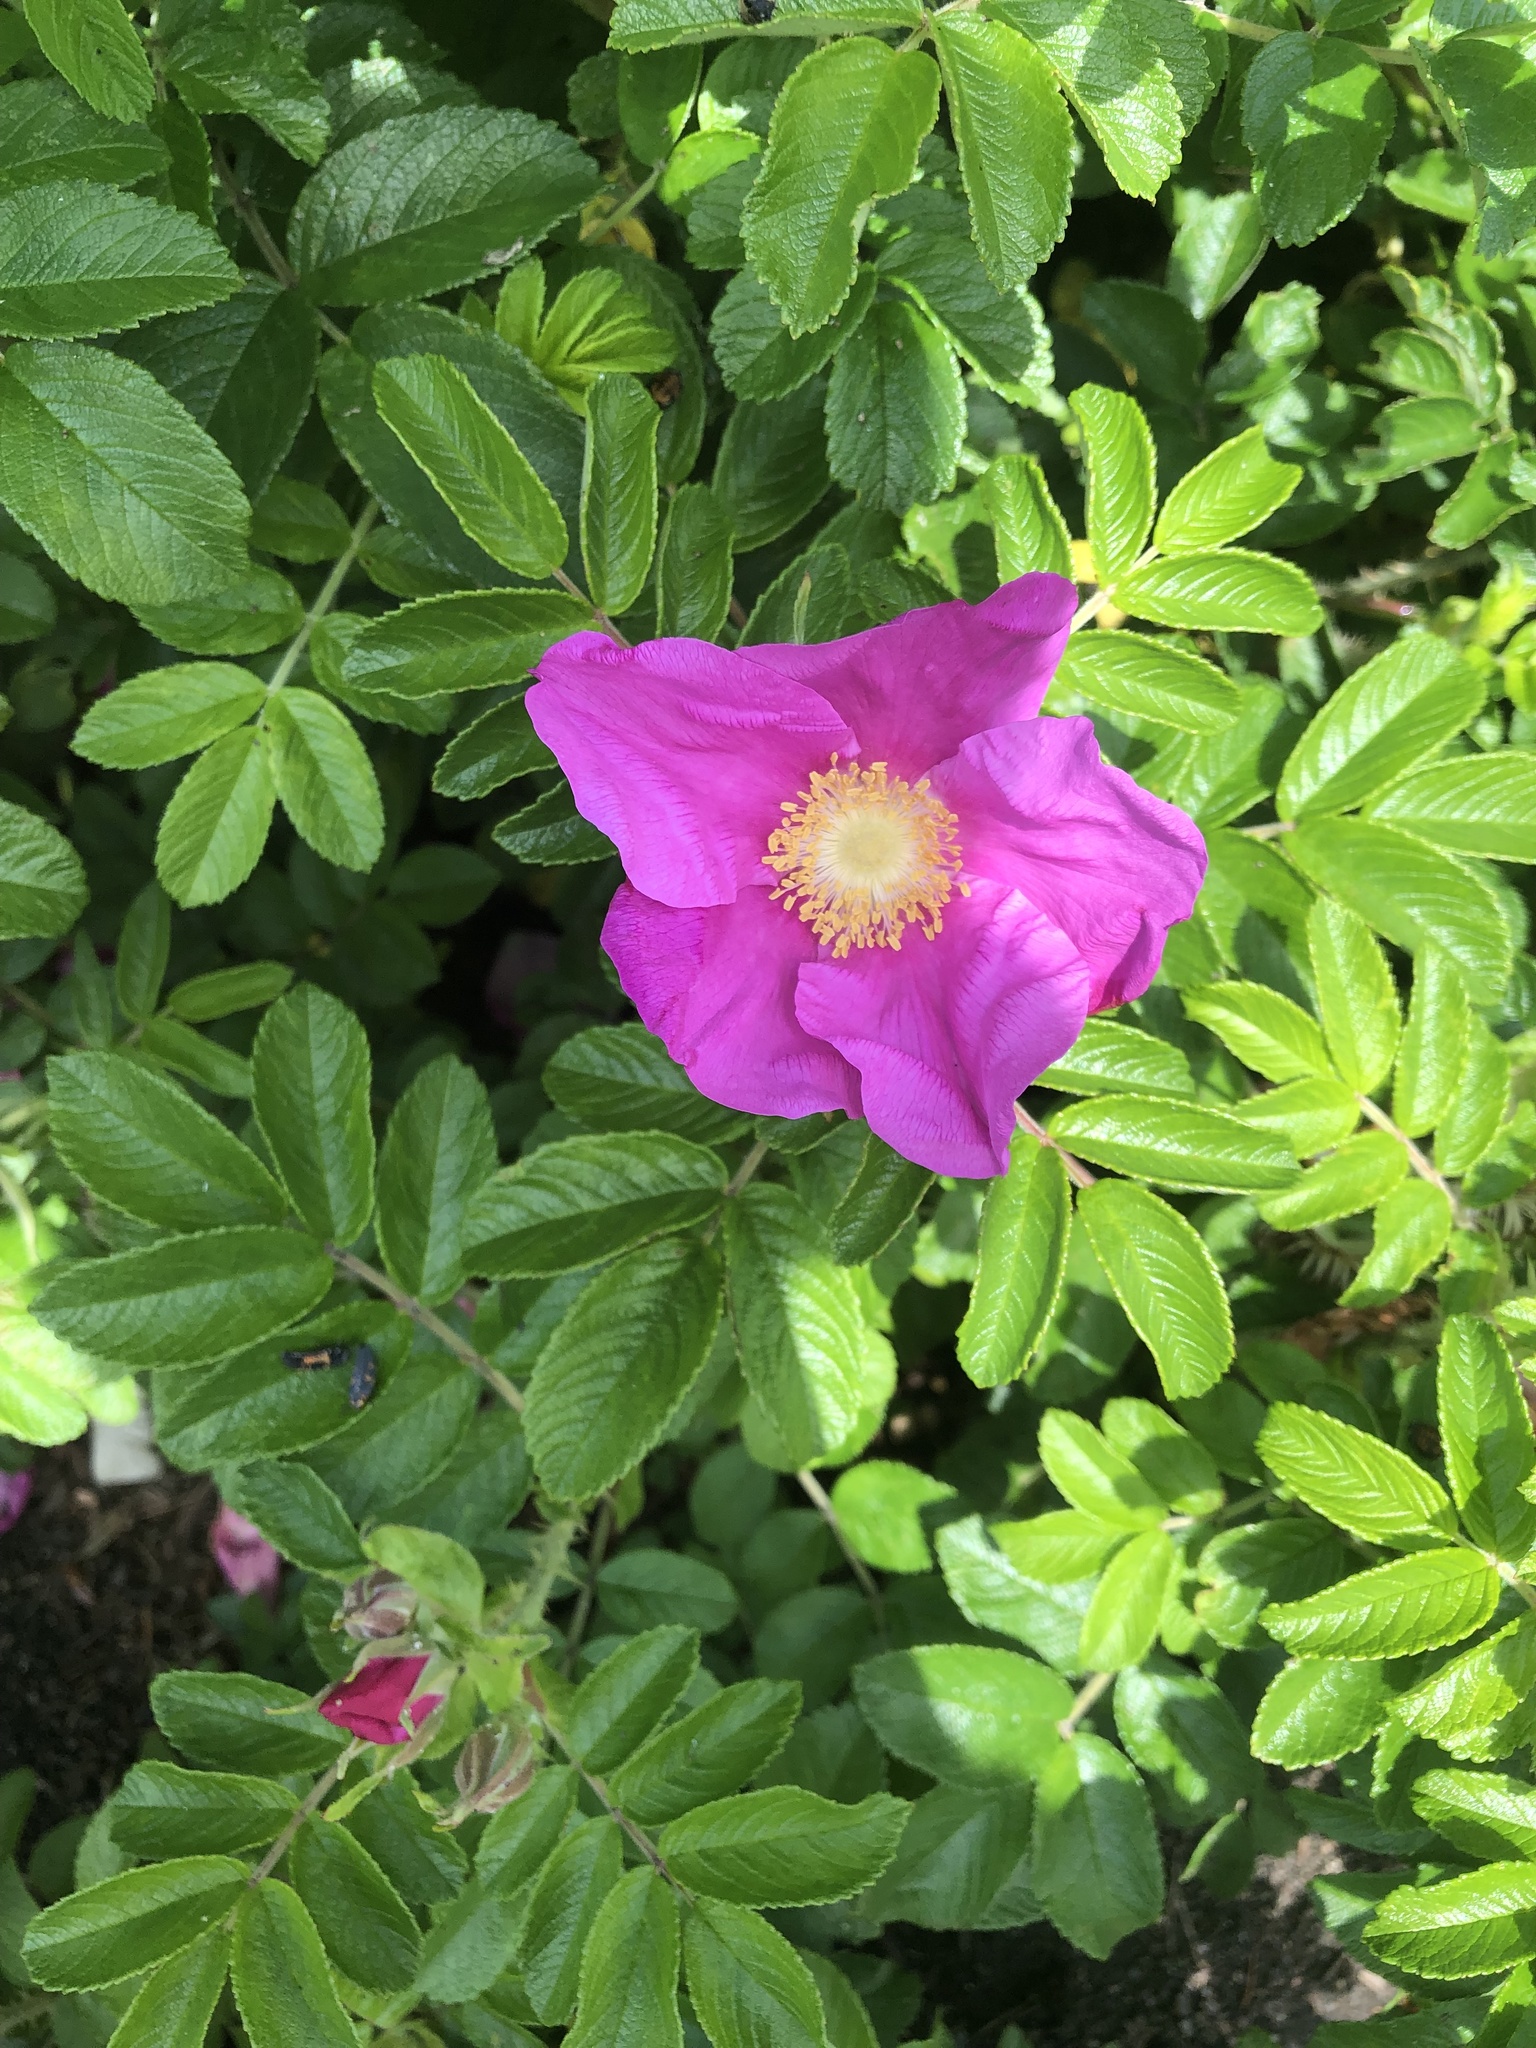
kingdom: Plantae
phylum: Tracheophyta
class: Magnoliopsida
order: Rosales
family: Rosaceae
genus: Rosa
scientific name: Rosa rugosa
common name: Japanese rose
